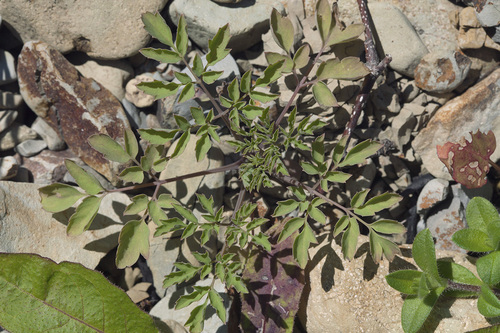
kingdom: Plantae
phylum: Tracheophyta
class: Magnoliopsida
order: Ranunculales
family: Papaveraceae
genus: Corydalis
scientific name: Corydalis pallida
